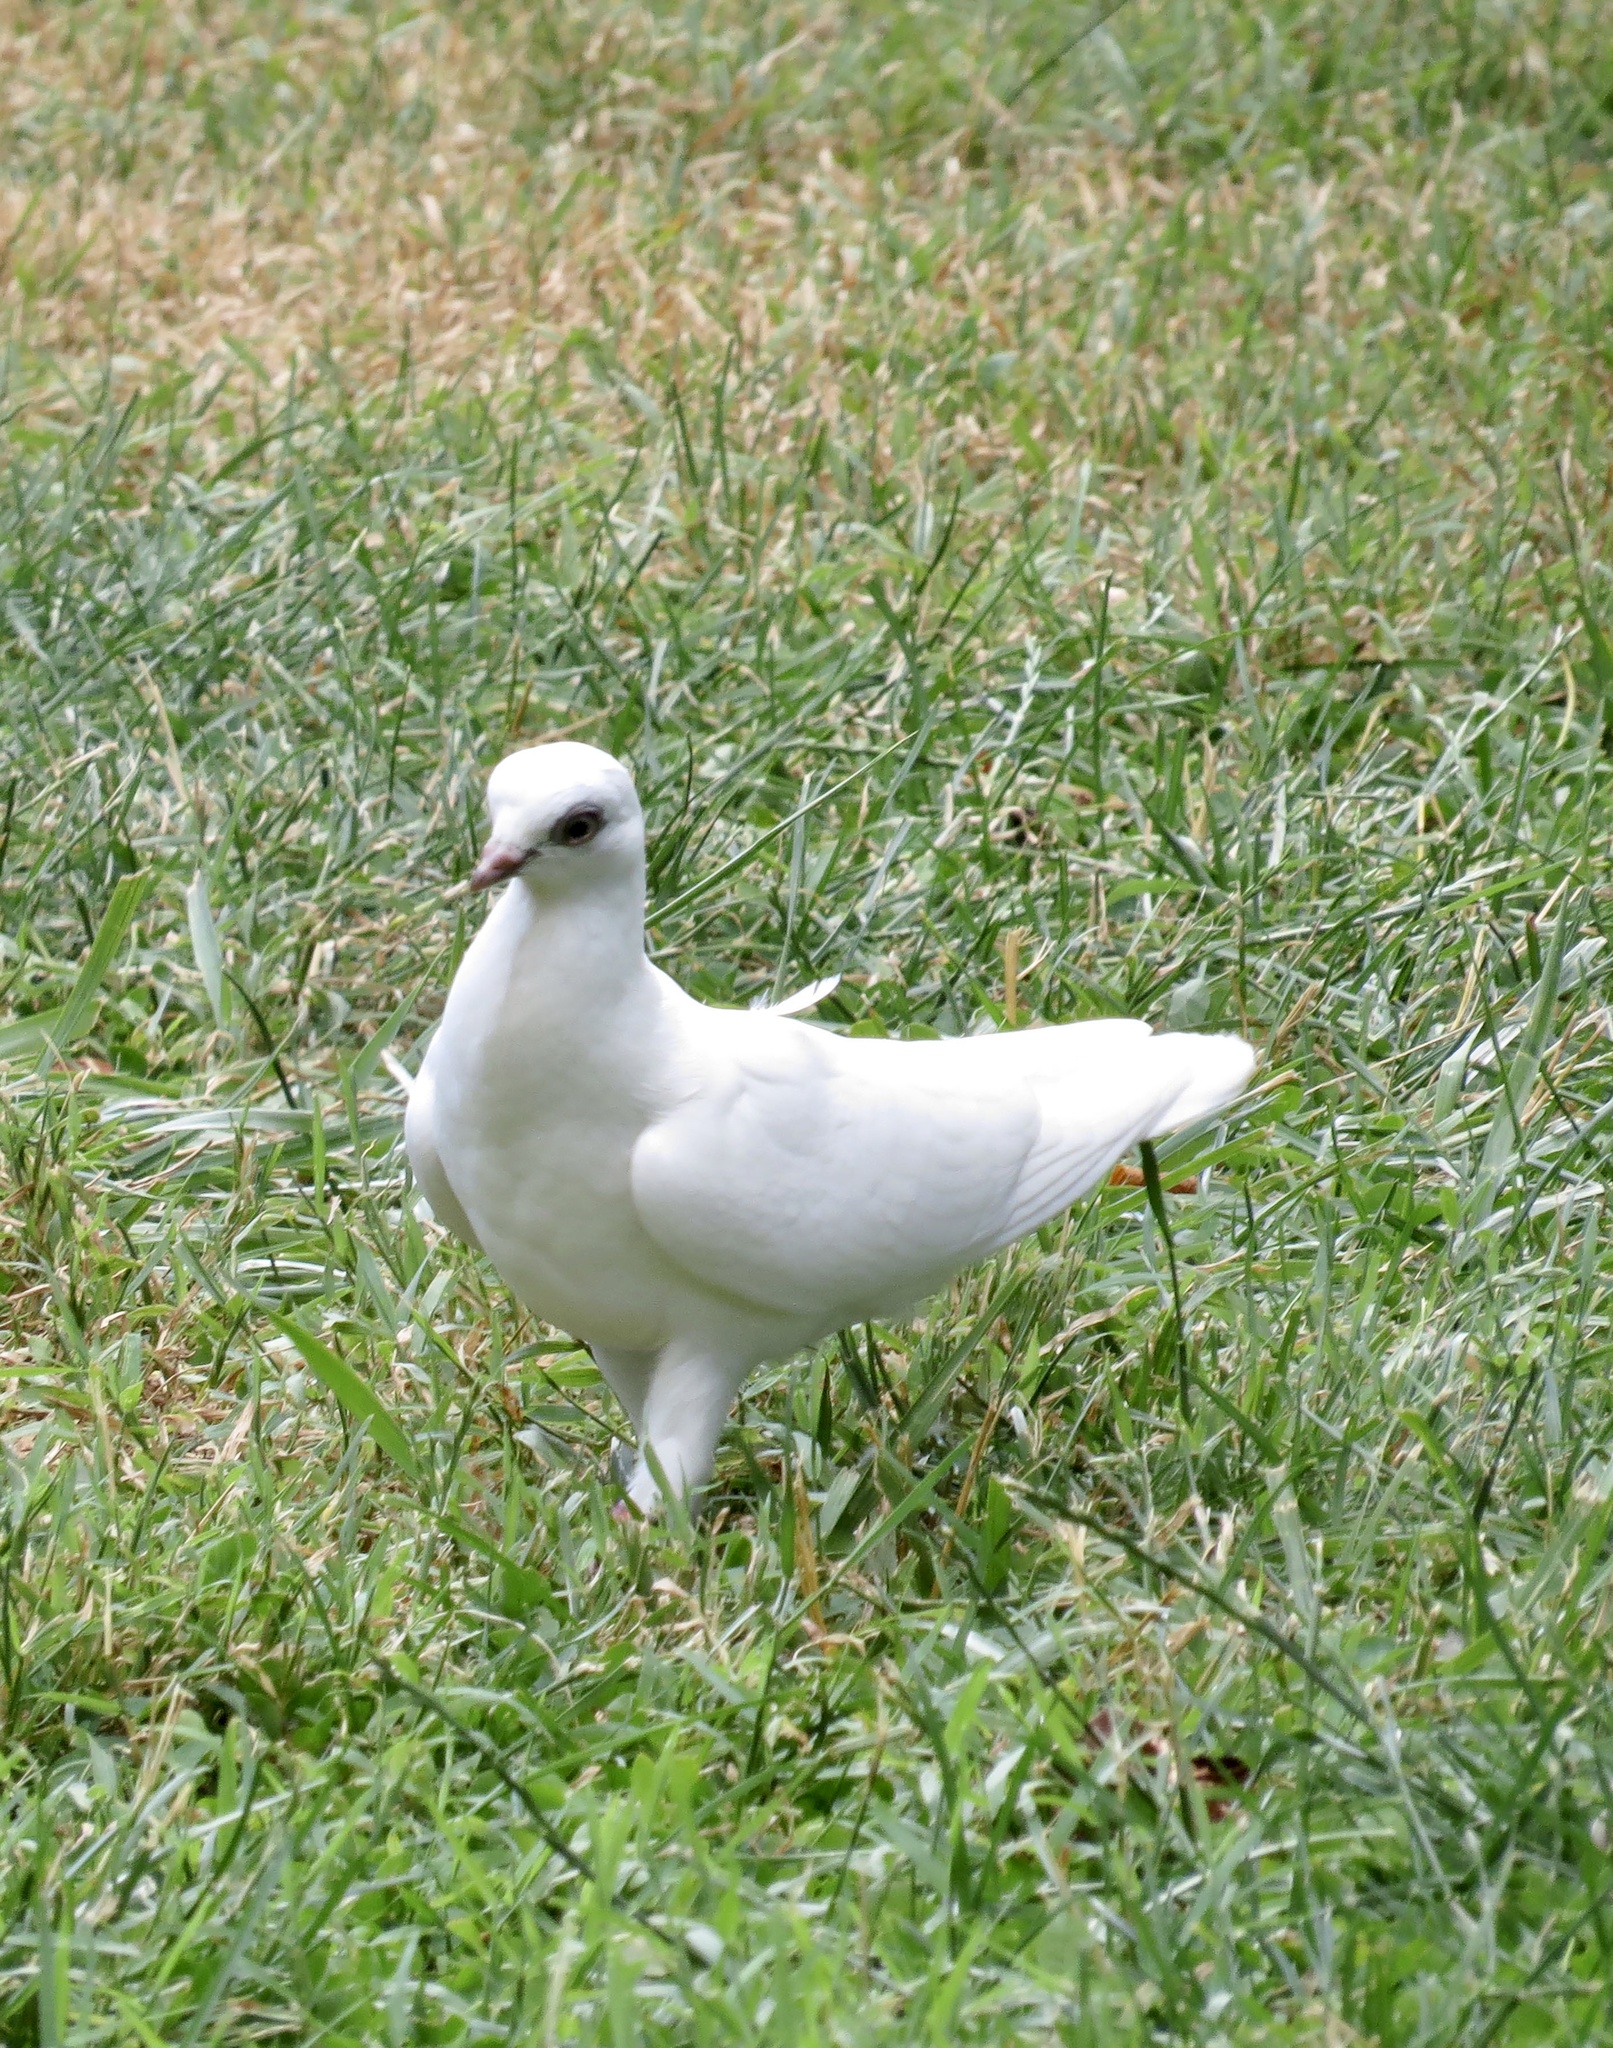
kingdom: Animalia
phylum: Chordata
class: Aves
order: Columbiformes
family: Columbidae
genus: Columba
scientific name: Columba livia
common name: Rock pigeon
